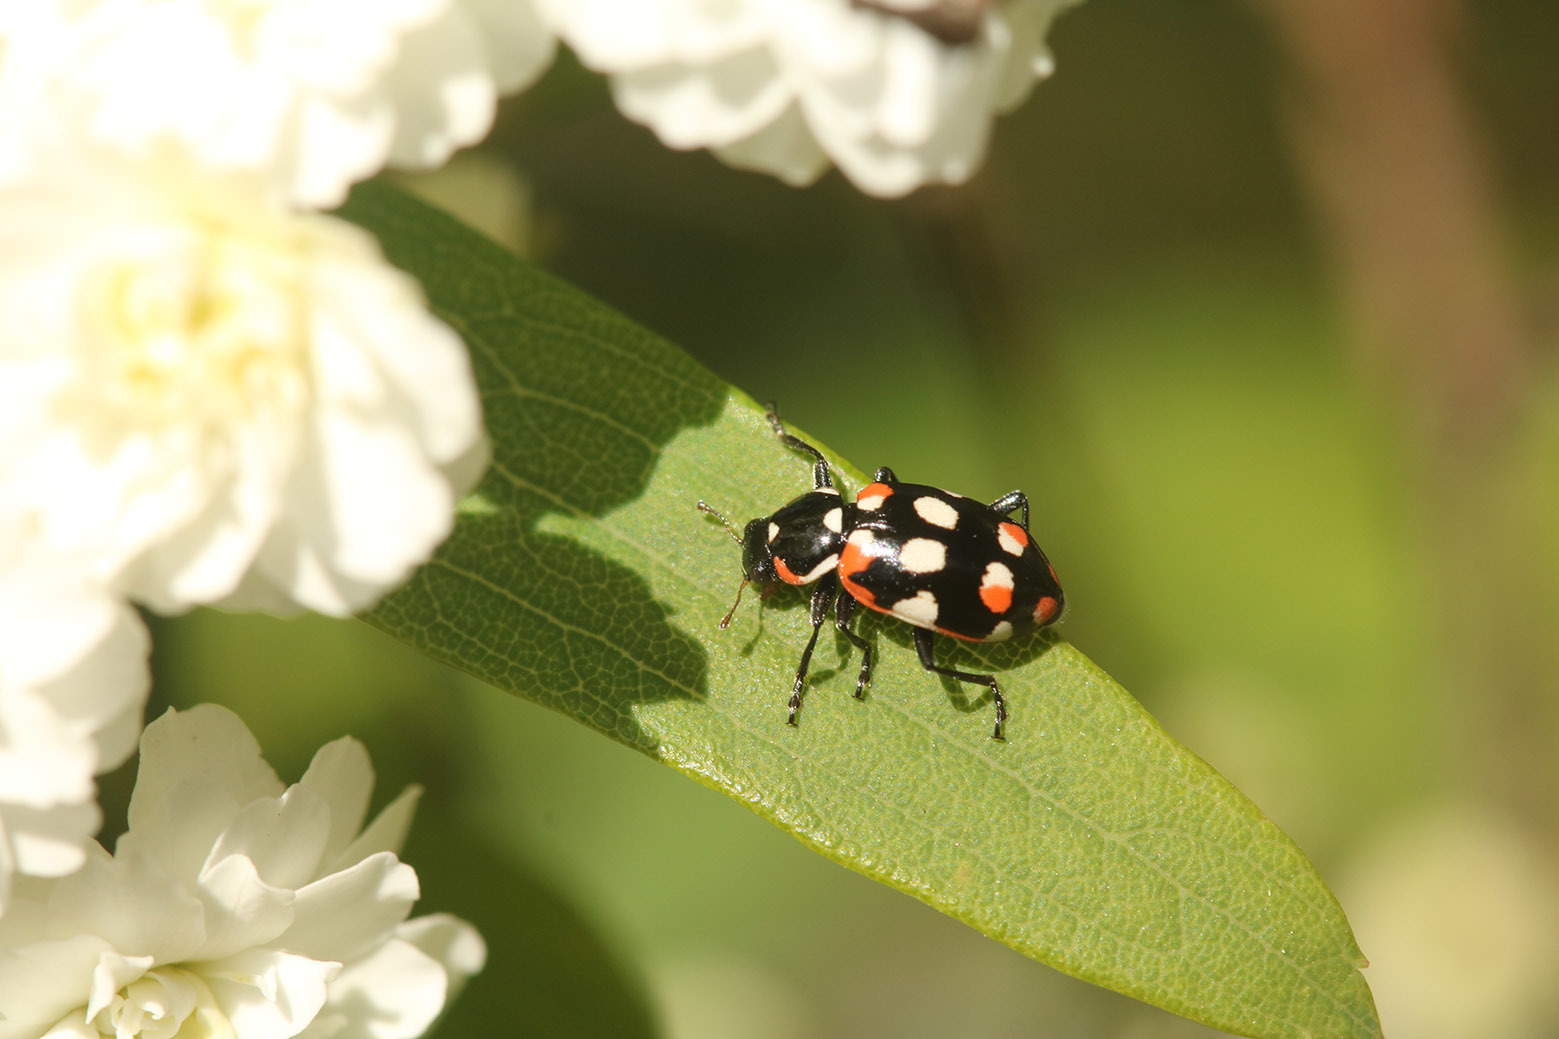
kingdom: Animalia
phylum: Arthropoda
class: Insecta
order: Coleoptera
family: Coccinellidae
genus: Eriopis
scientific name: Eriopis connexa
